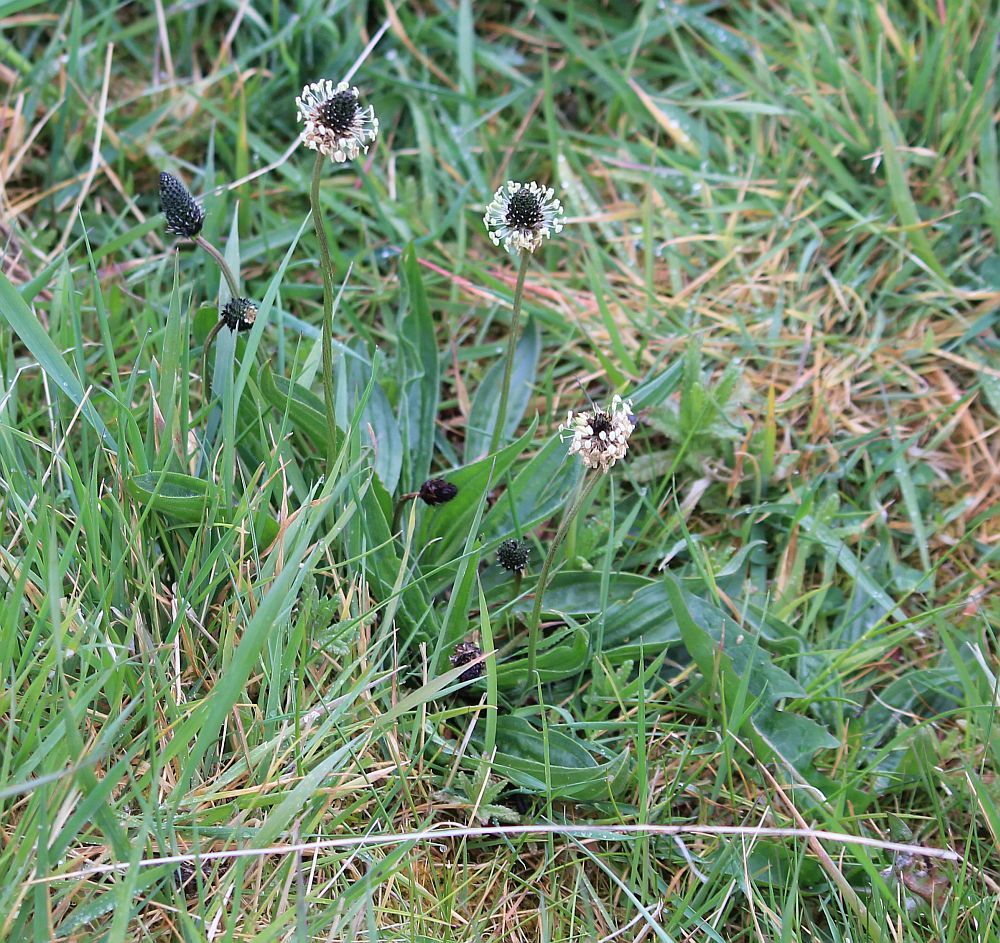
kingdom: Plantae
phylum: Tracheophyta
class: Magnoliopsida
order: Lamiales
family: Plantaginaceae
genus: Plantago
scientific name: Plantago lanceolata
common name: Ribwort plantain
